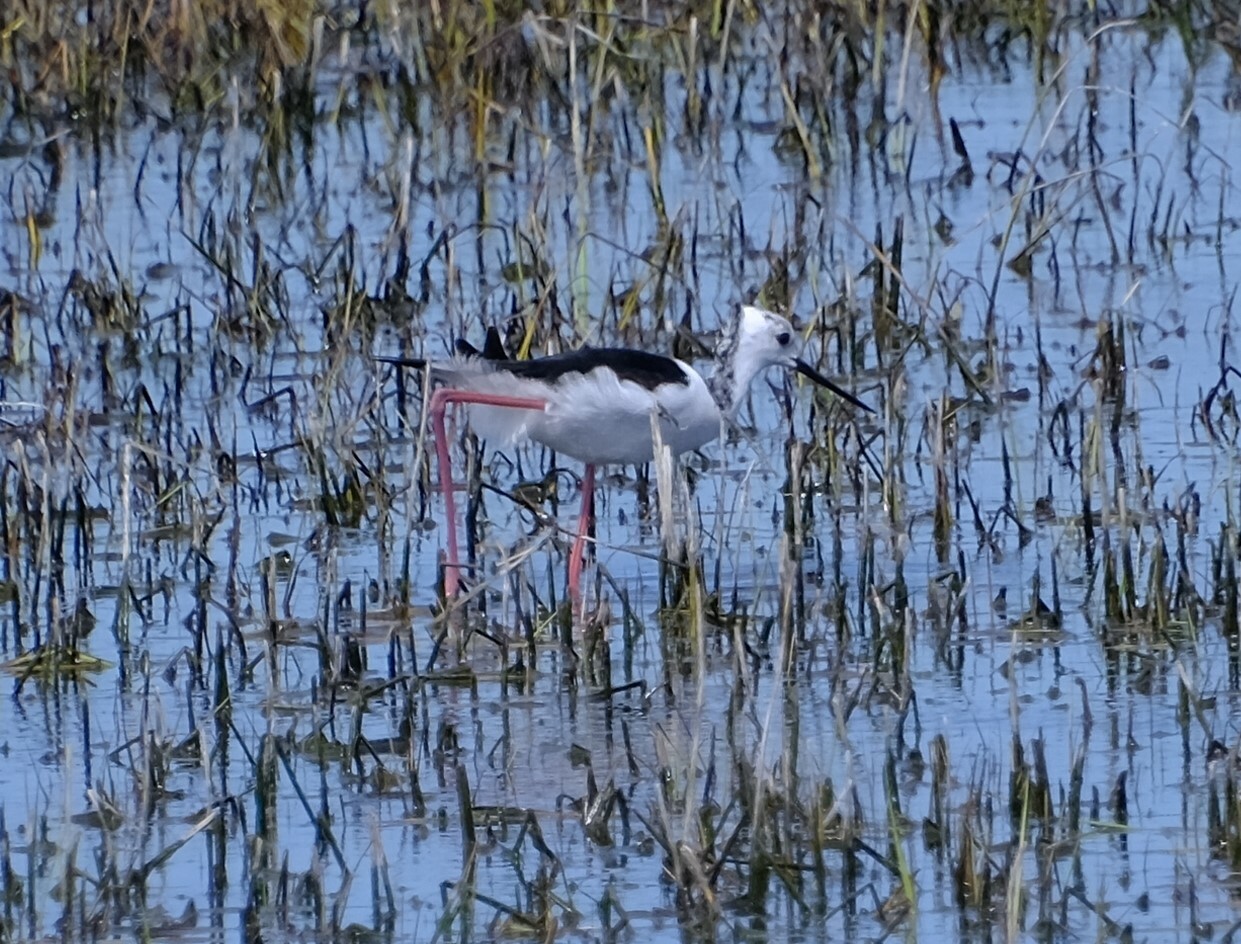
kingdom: Animalia
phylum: Chordata
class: Aves
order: Charadriiformes
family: Recurvirostridae
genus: Himantopus
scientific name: Himantopus leucocephalus
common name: White-headed stilt
